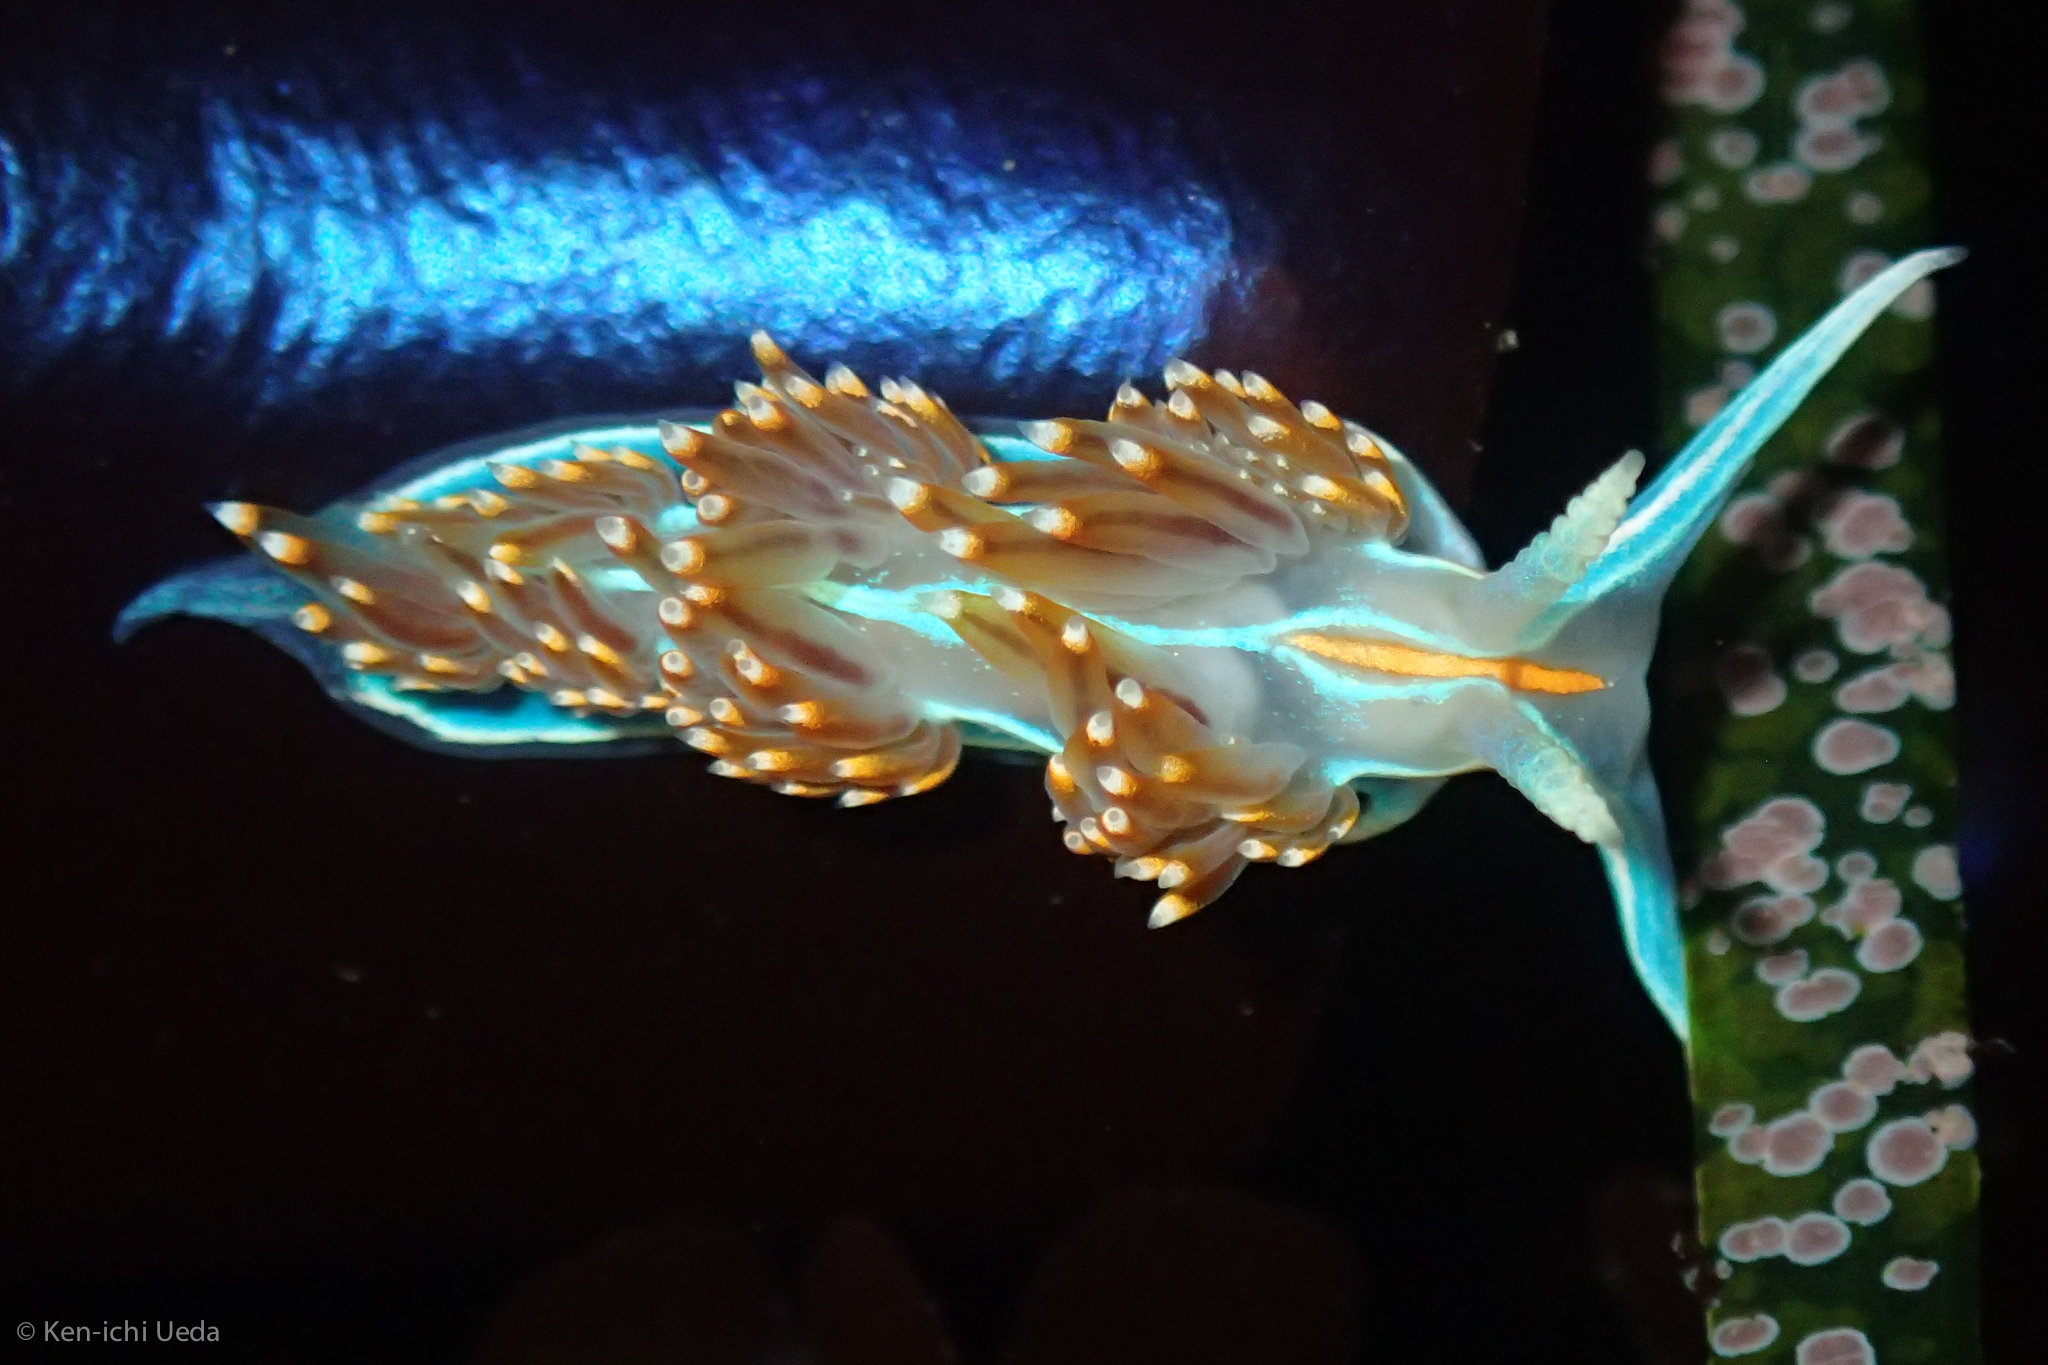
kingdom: Animalia
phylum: Mollusca
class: Gastropoda
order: Nudibranchia
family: Myrrhinidae
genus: Hermissenda
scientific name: Hermissenda opalescens
